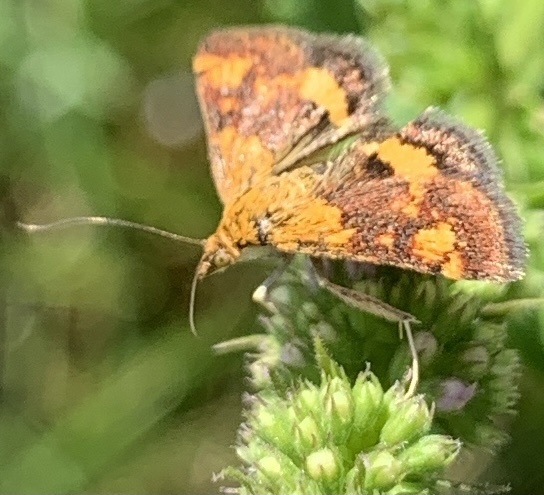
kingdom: Animalia
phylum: Arthropoda
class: Insecta
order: Lepidoptera
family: Crambidae
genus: Pyrausta
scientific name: Pyrausta orphisalis
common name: Orange mint moth
